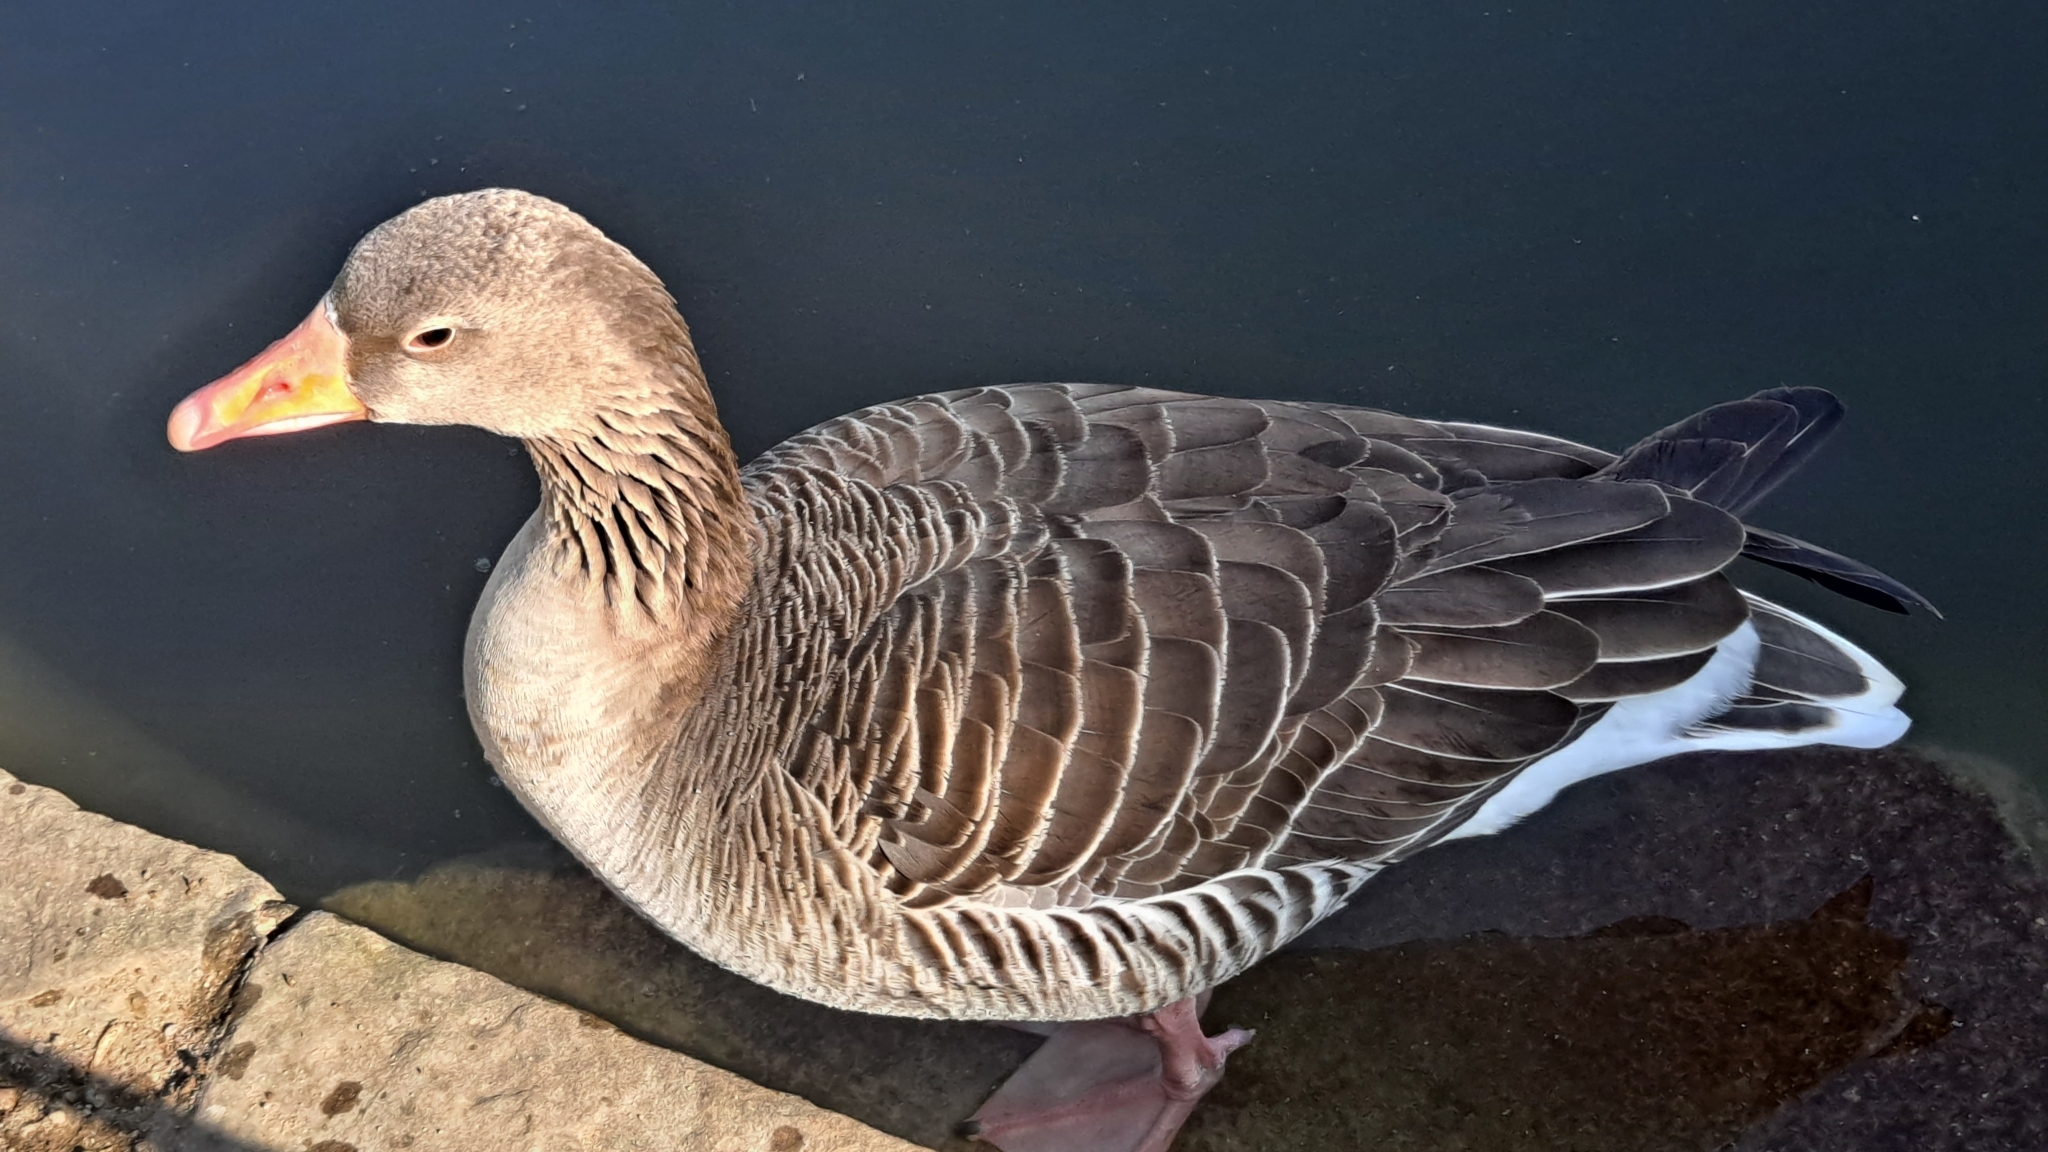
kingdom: Animalia
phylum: Chordata
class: Aves
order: Anseriformes
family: Anatidae
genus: Anser
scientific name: Anser anser
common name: Greylag goose
